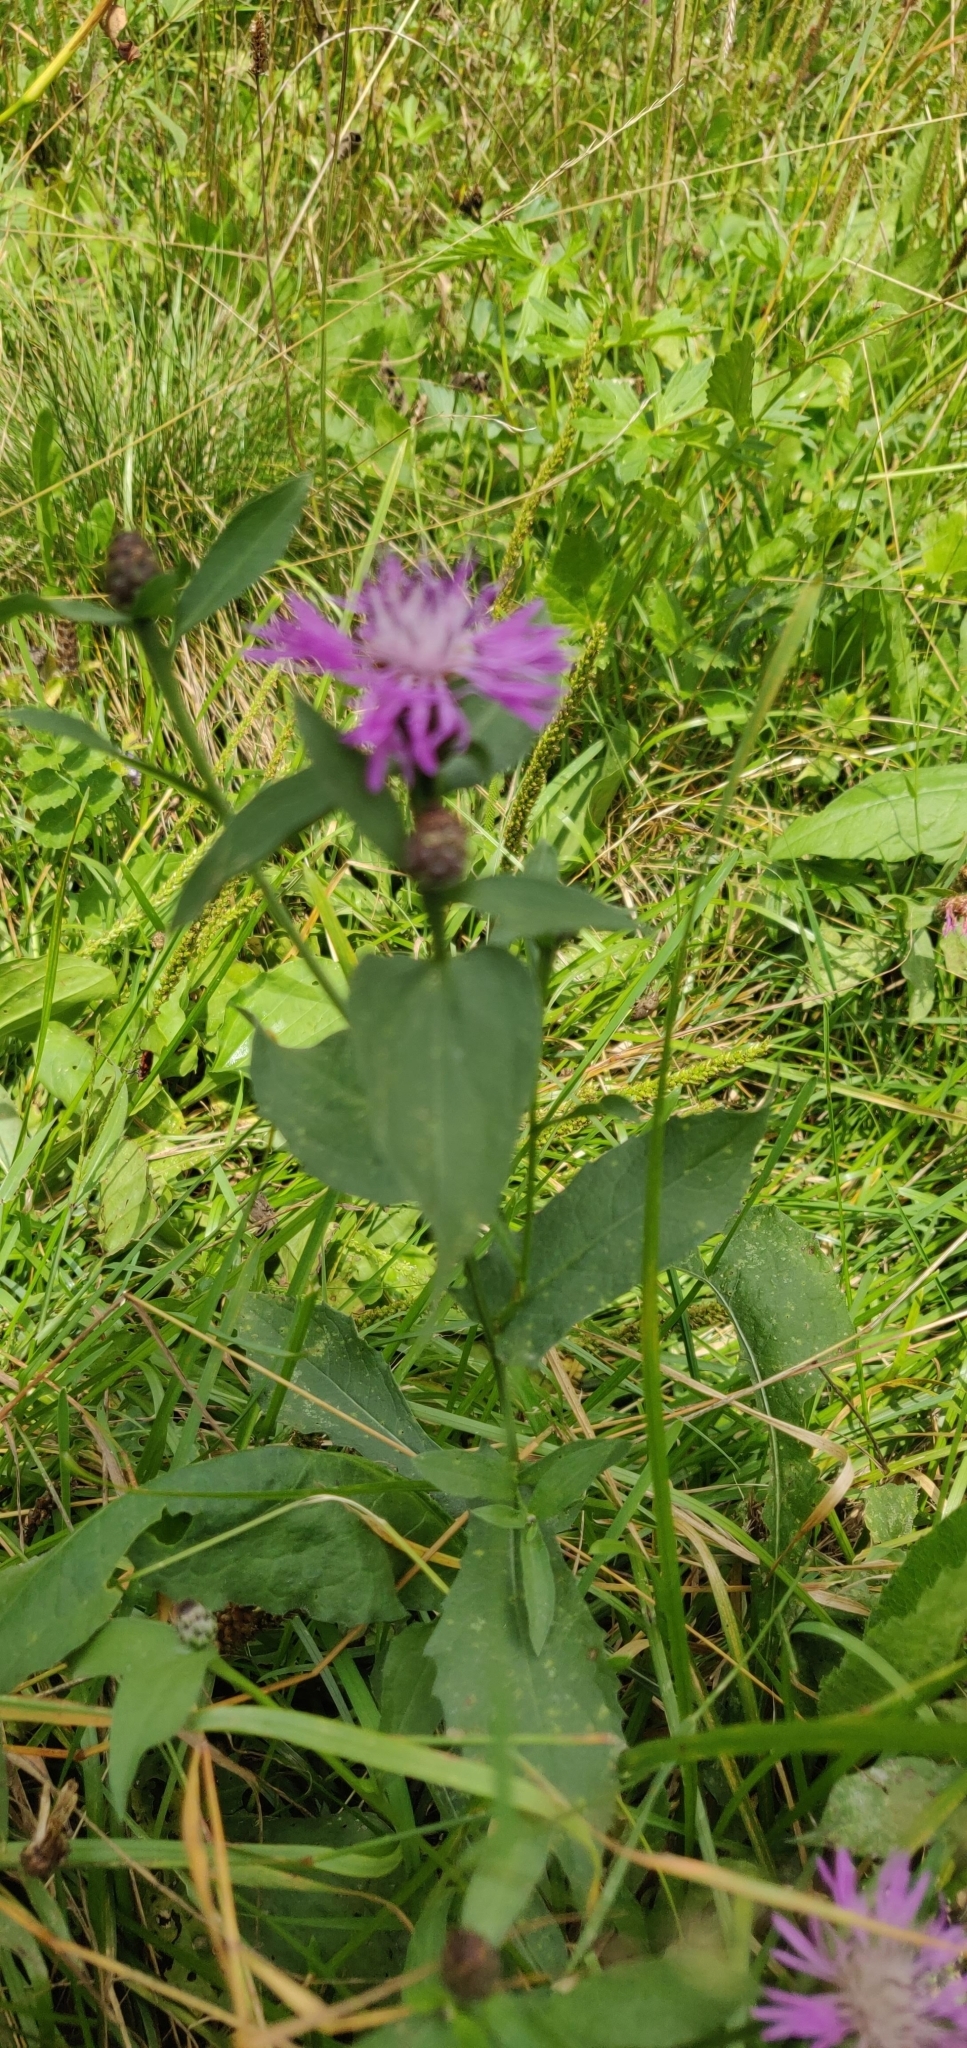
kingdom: Plantae
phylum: Tracheophyta
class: Magnoliopsida
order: Asterales
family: Asteraceae
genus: Centaurea
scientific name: Centaurea nigrescens
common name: Tyrol knapweed
